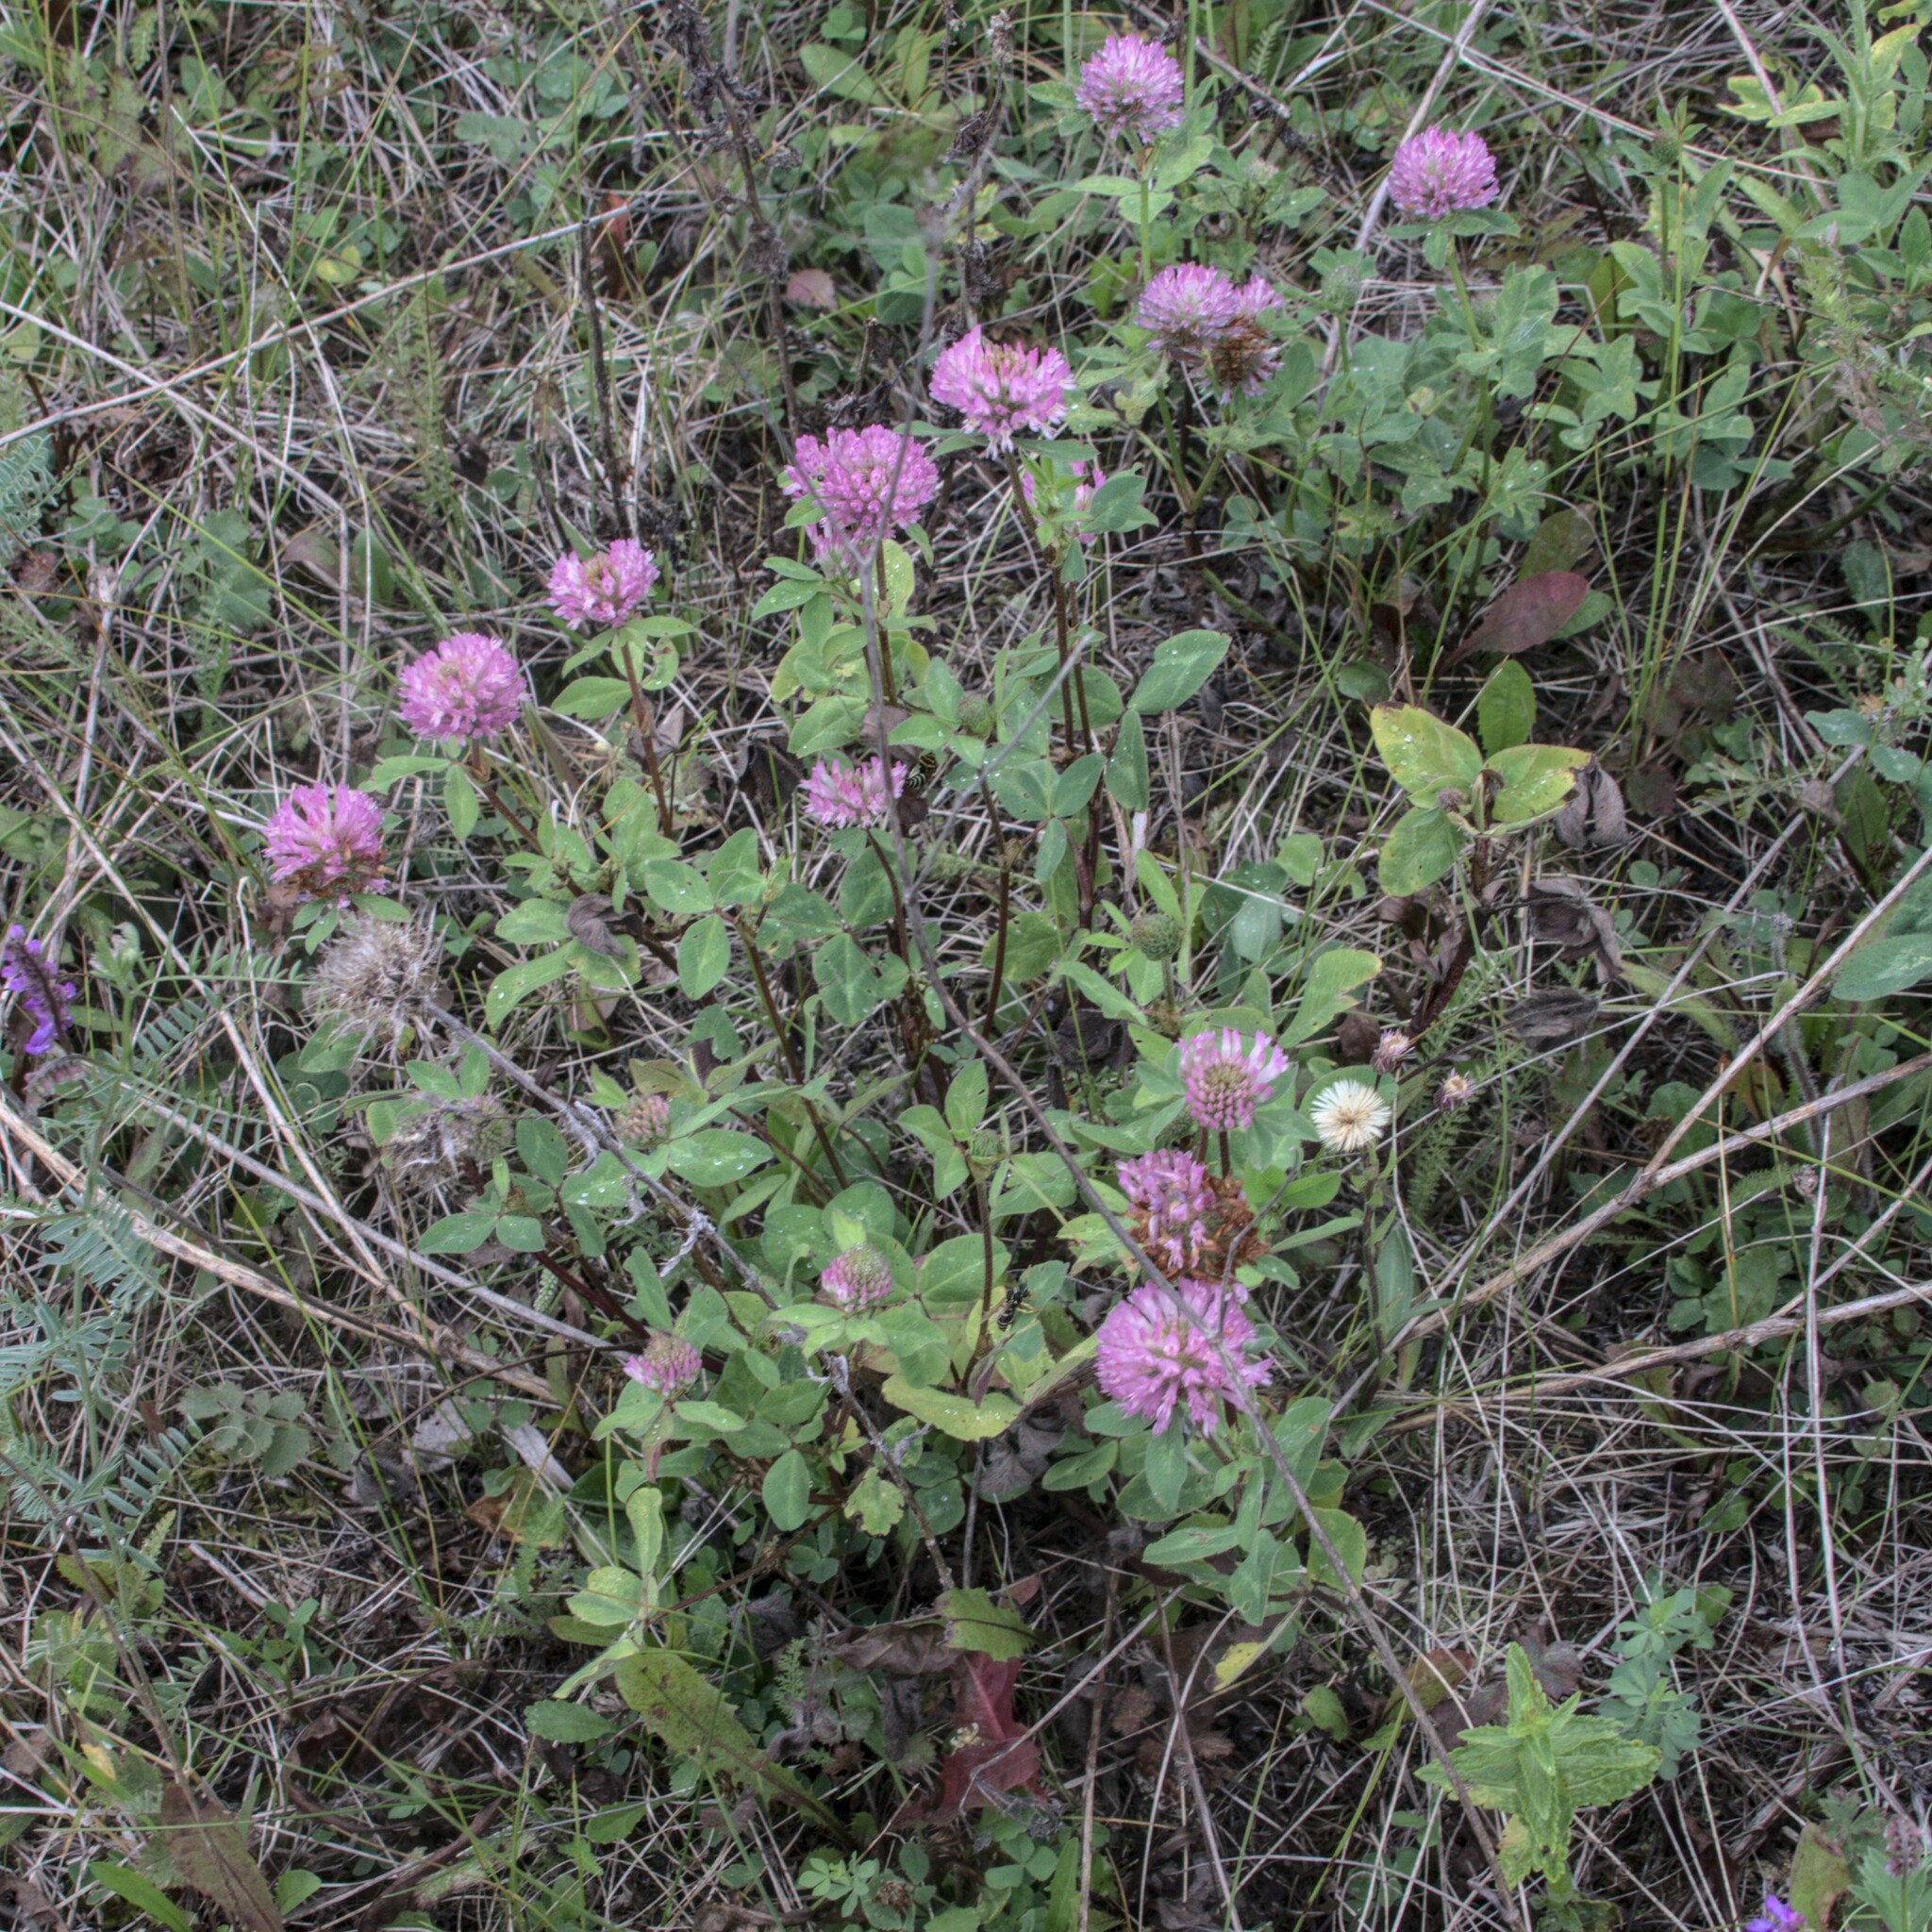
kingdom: Plantae
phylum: Tracheophyta
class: Magnoliopsida
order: Fabales
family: Fabaceae
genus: Trifolium
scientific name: Trifolium pratense
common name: Red clover
